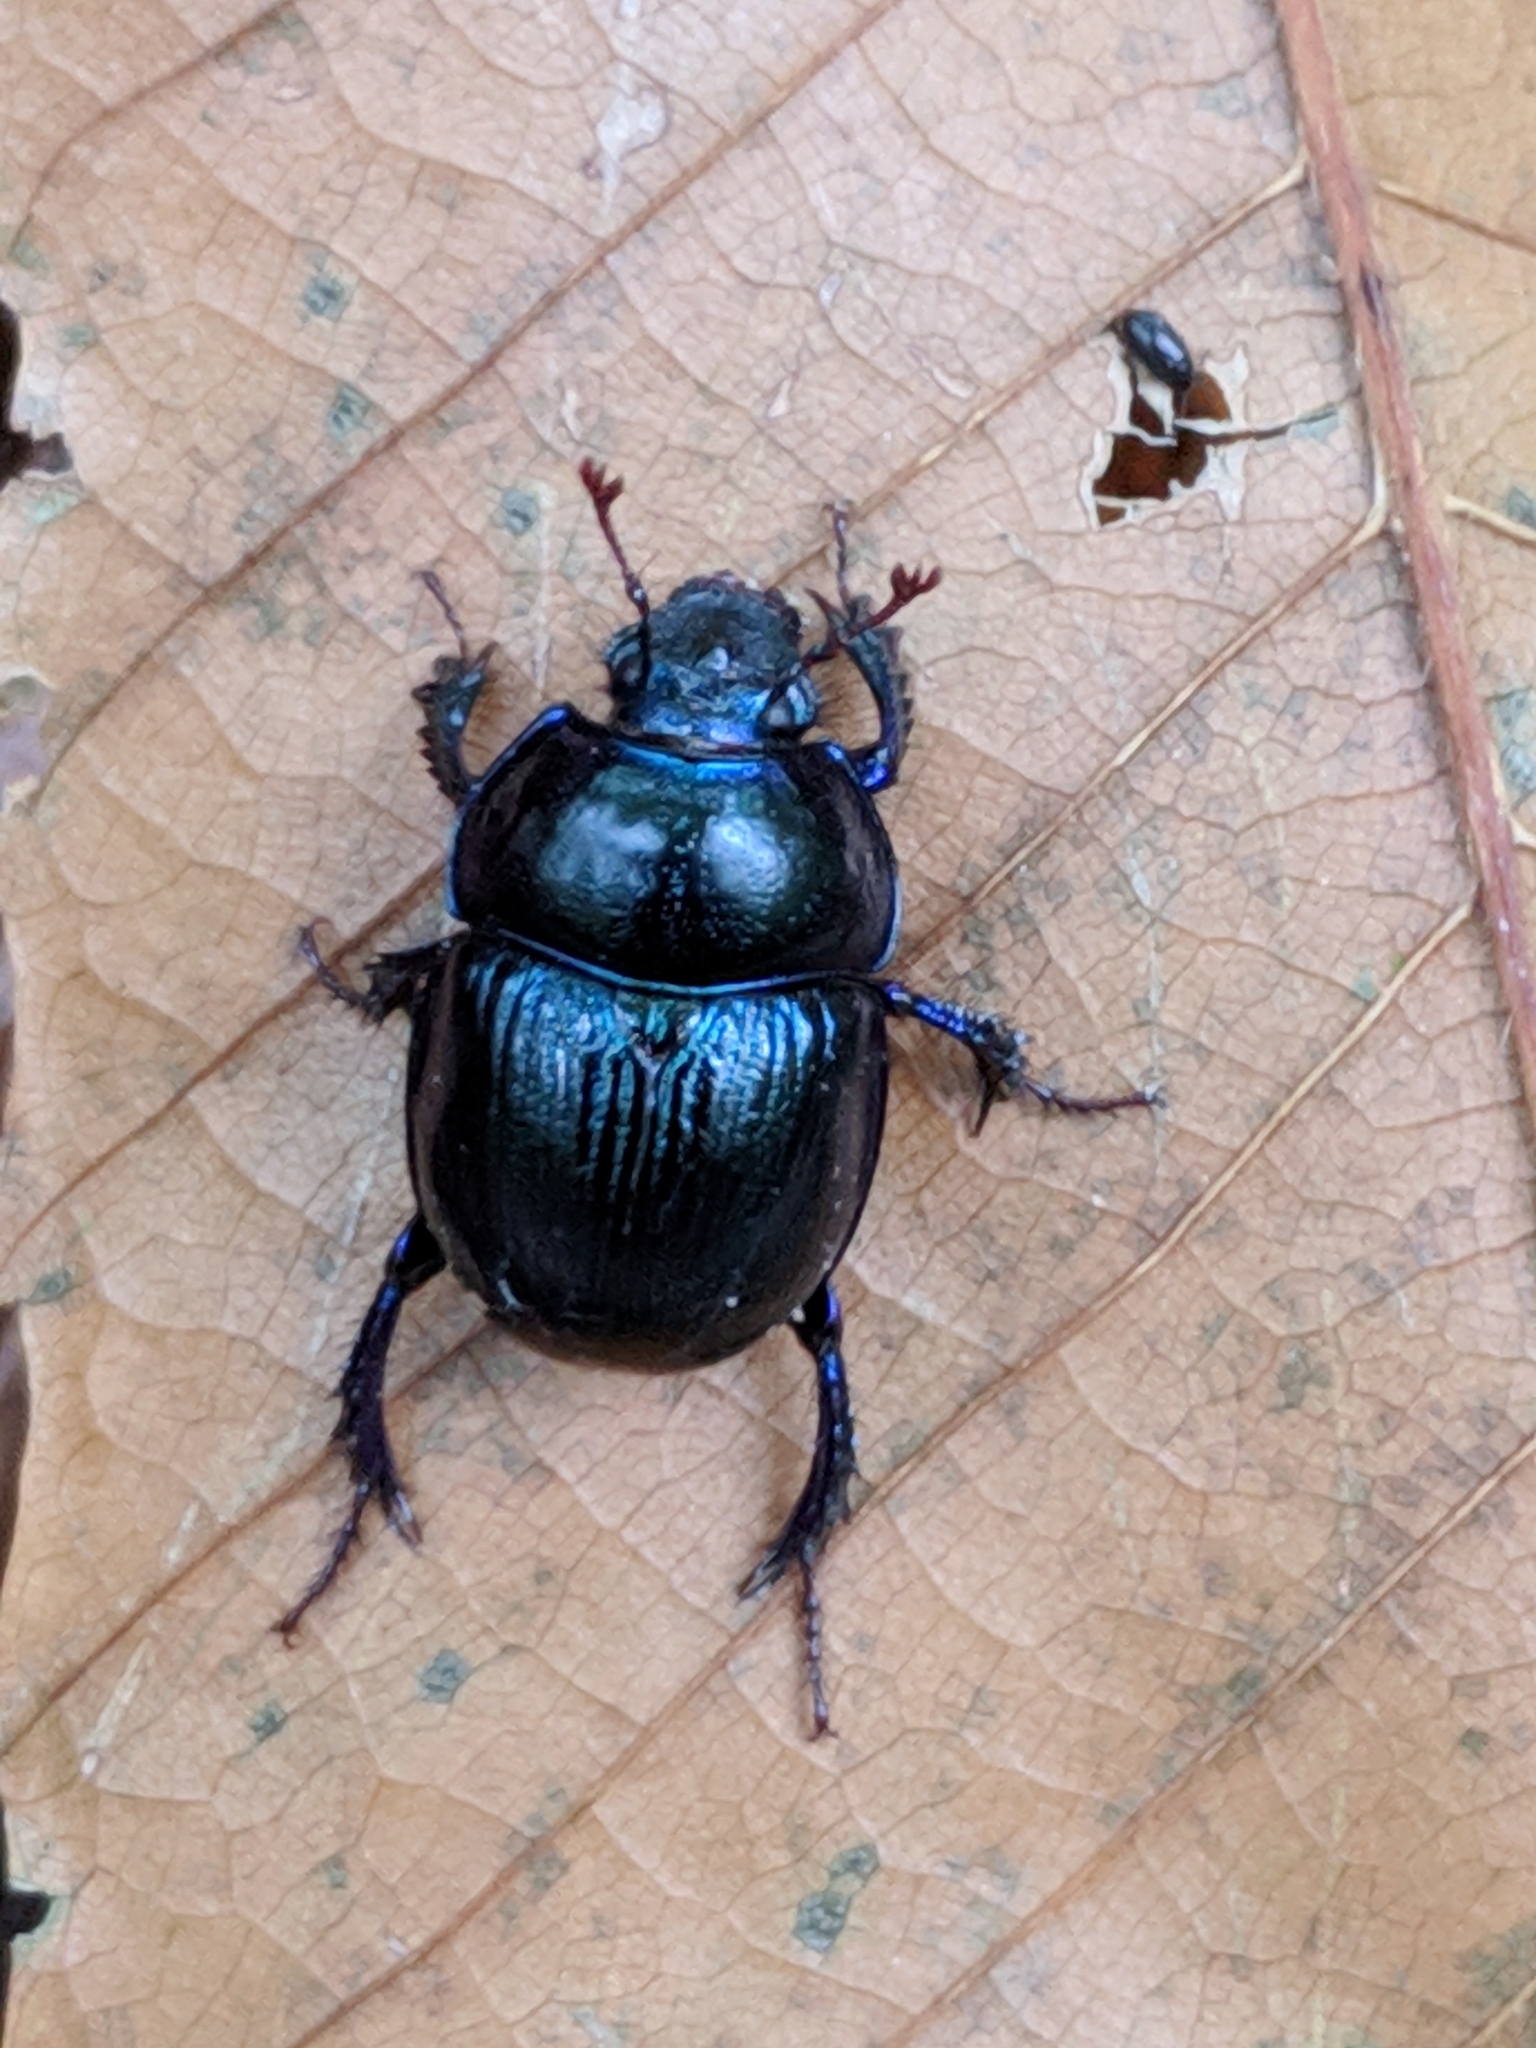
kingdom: Animalia
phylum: Arthropoda
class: Insecta
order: Coleoptera
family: Geotrupidae
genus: Anoplotrupes
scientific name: Anoplotrupes stercorosus
